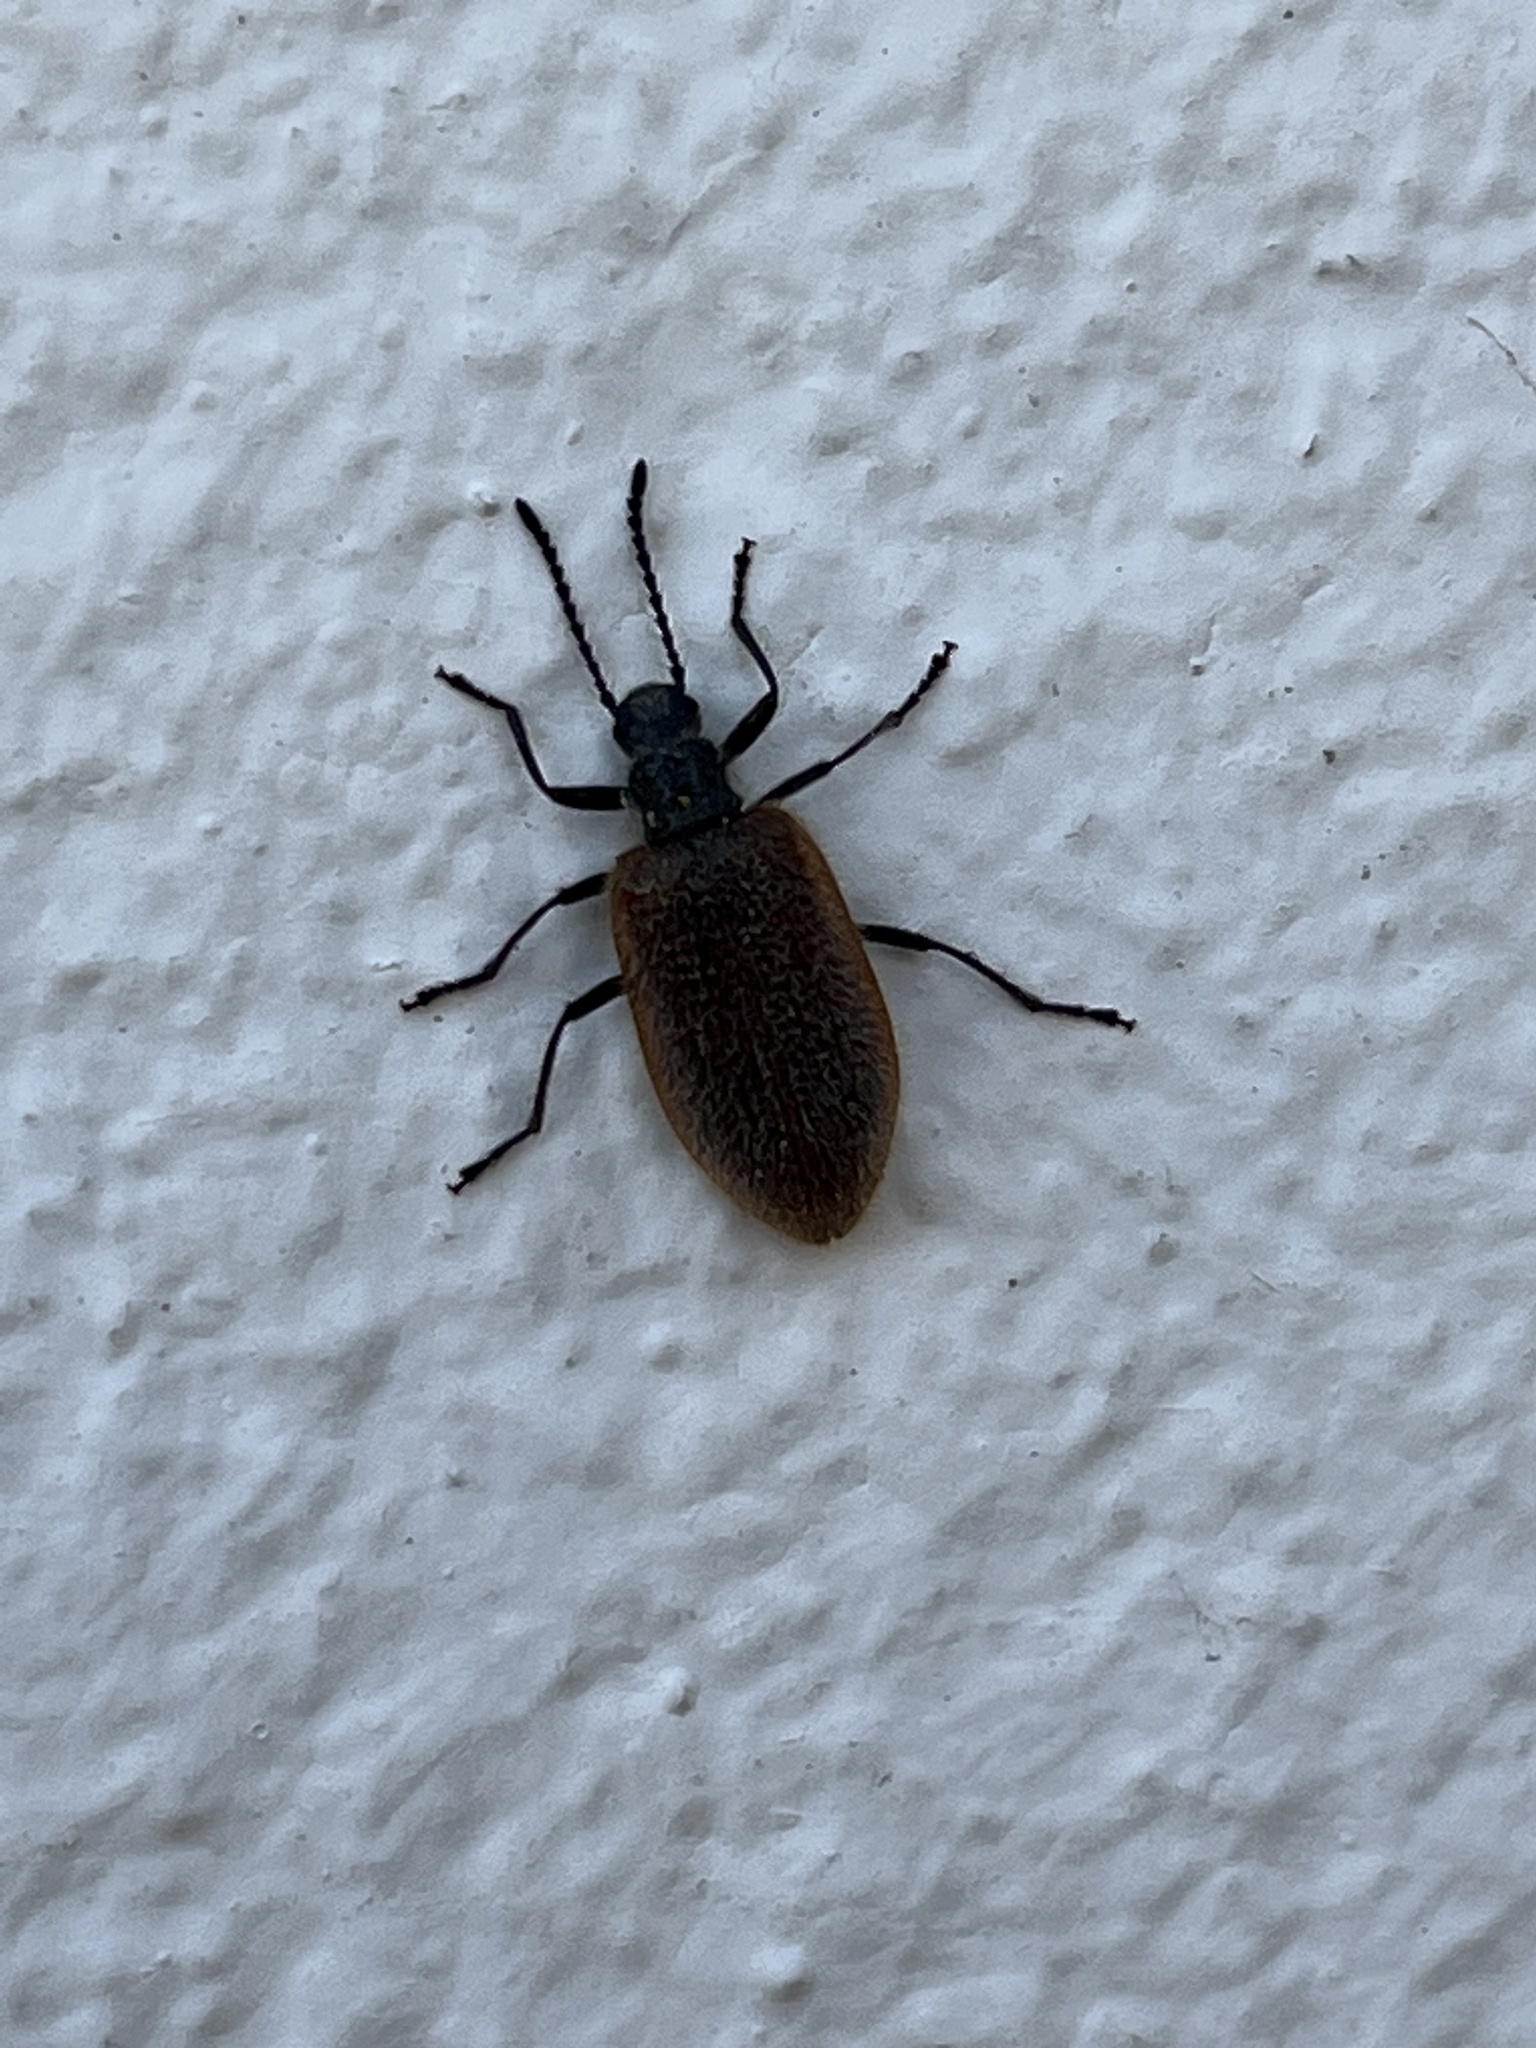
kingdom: Animalia
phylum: Arthropoda
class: Insecta
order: Coleoptera
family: Tenebrionidae
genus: Lagria
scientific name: Lagria hirta
